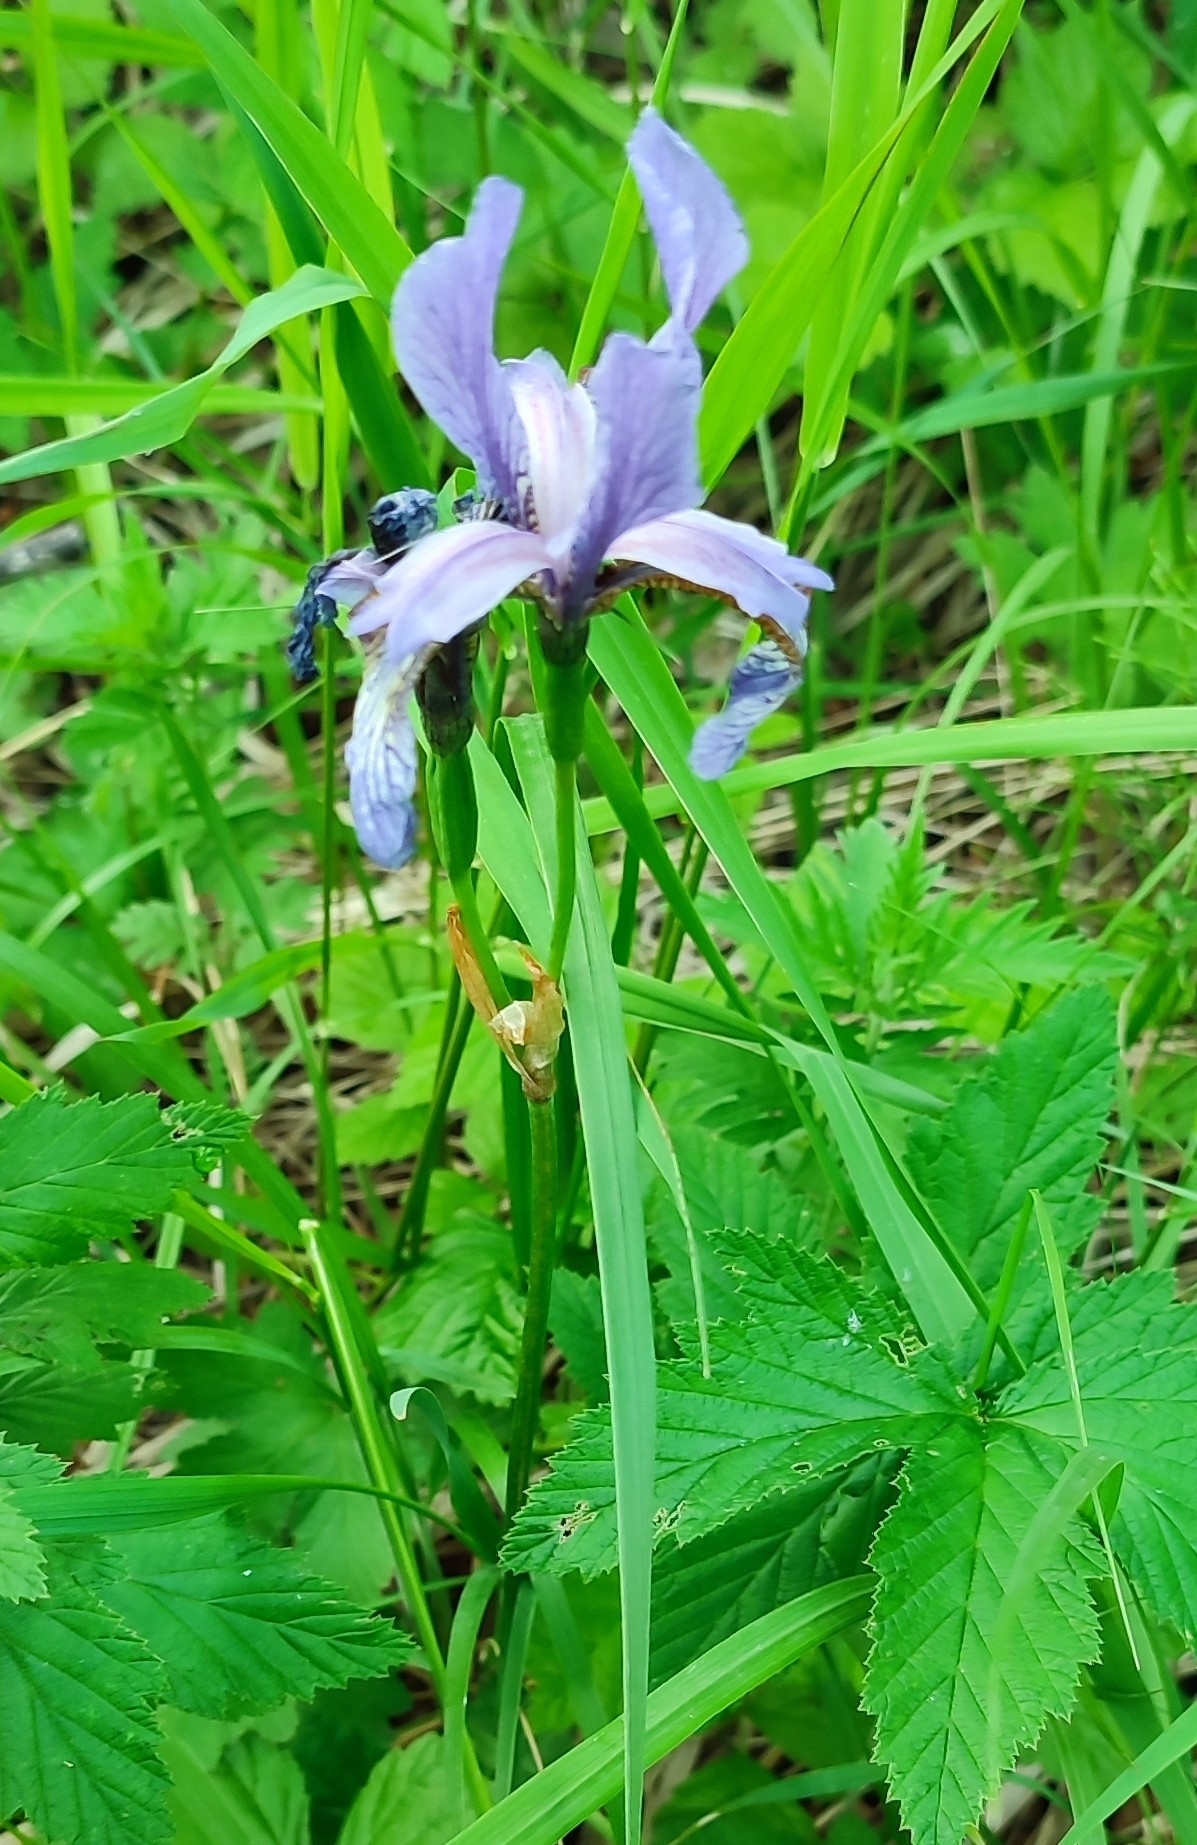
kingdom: Plantae
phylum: Tracheophyta
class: Liliopsida
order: Asparagales
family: Iridaceae
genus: Iris
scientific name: Iris sibirica
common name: Siberian iris
